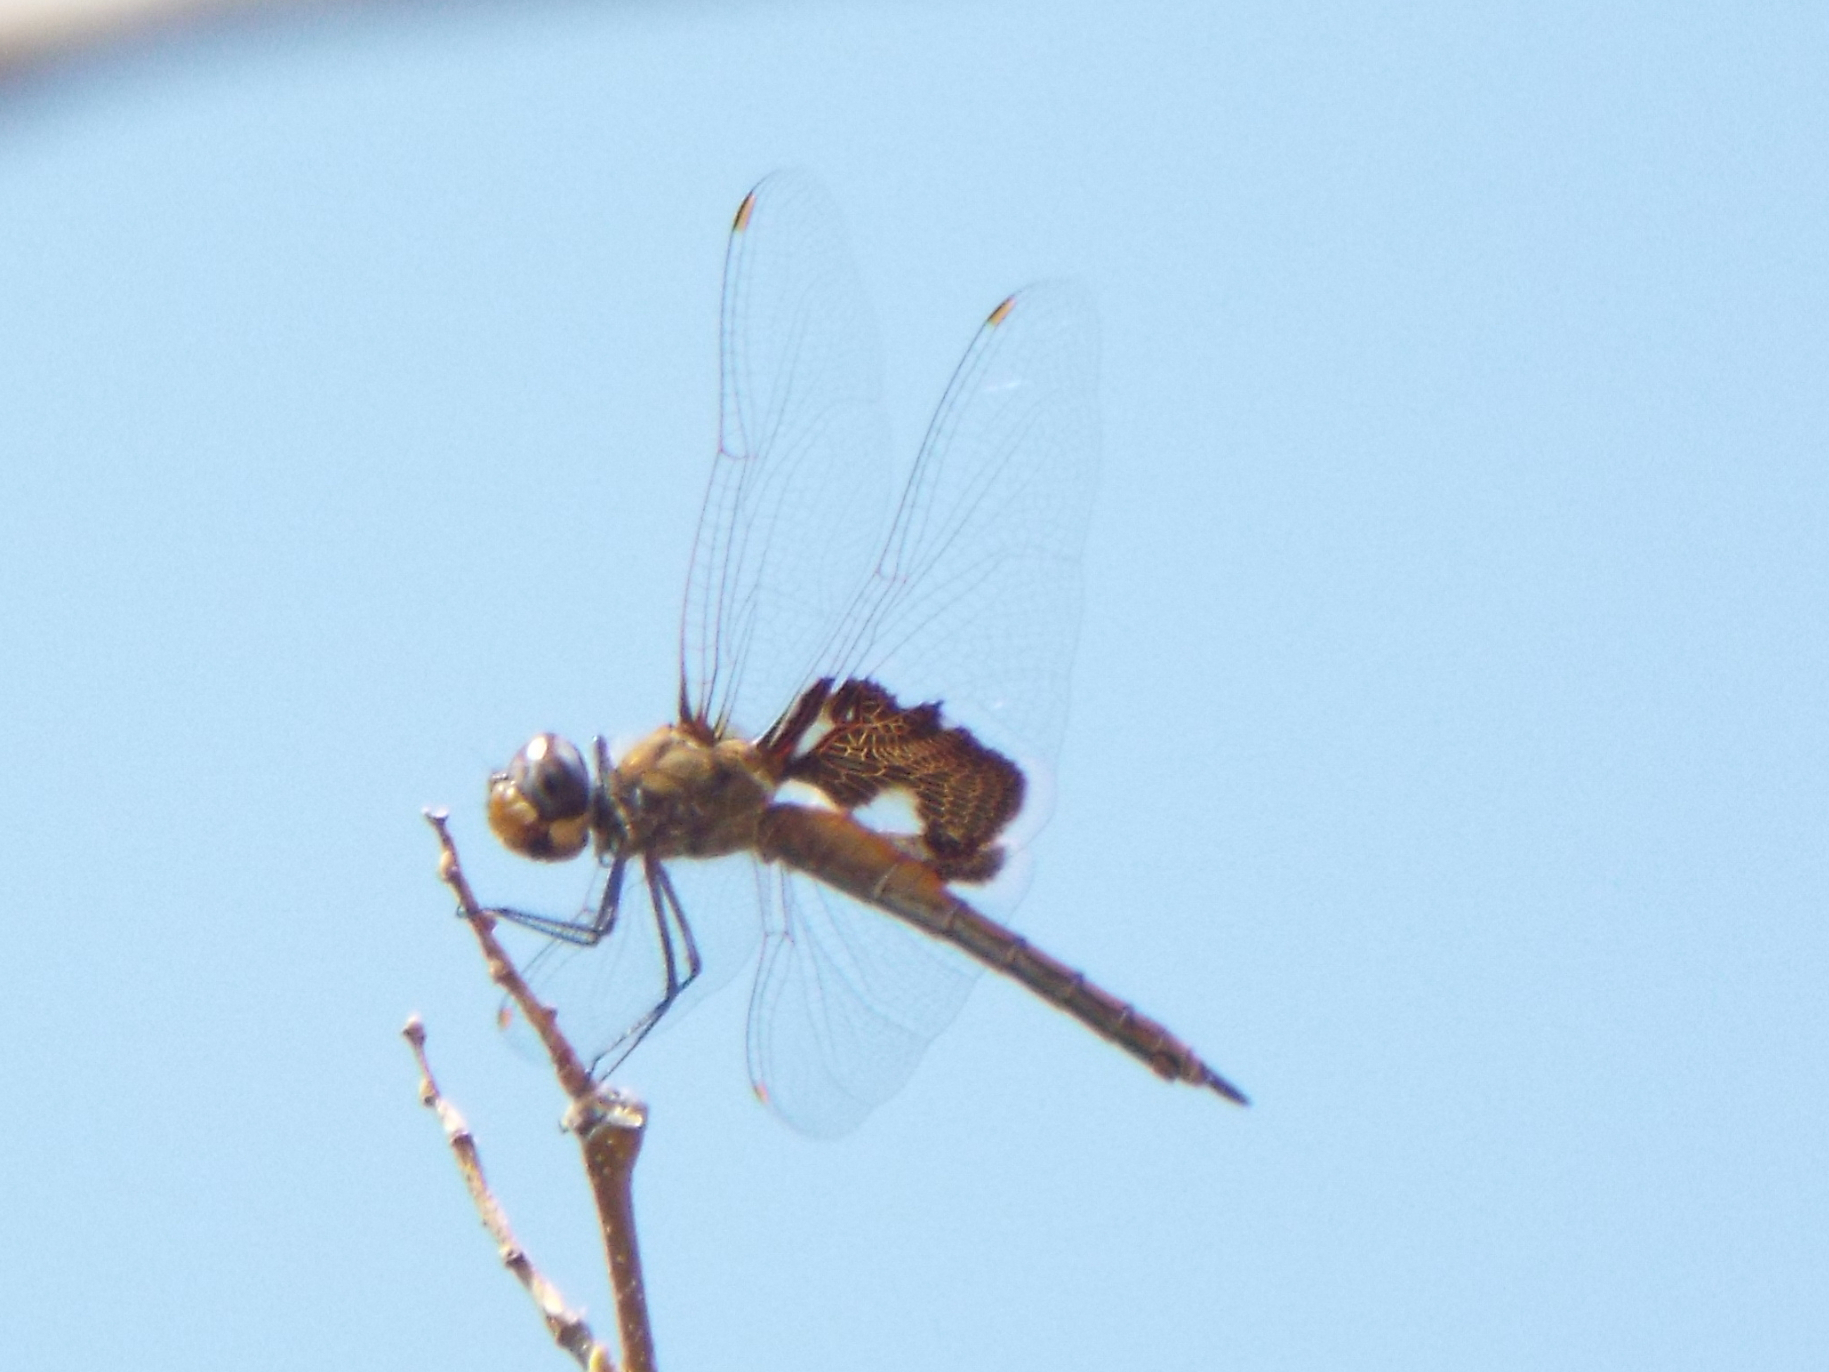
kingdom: Animalia
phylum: Arthropoda
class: Insecta
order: Odonata
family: Libellulidae
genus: Tramea
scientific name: Tramea onusta
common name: Red saddlebags
